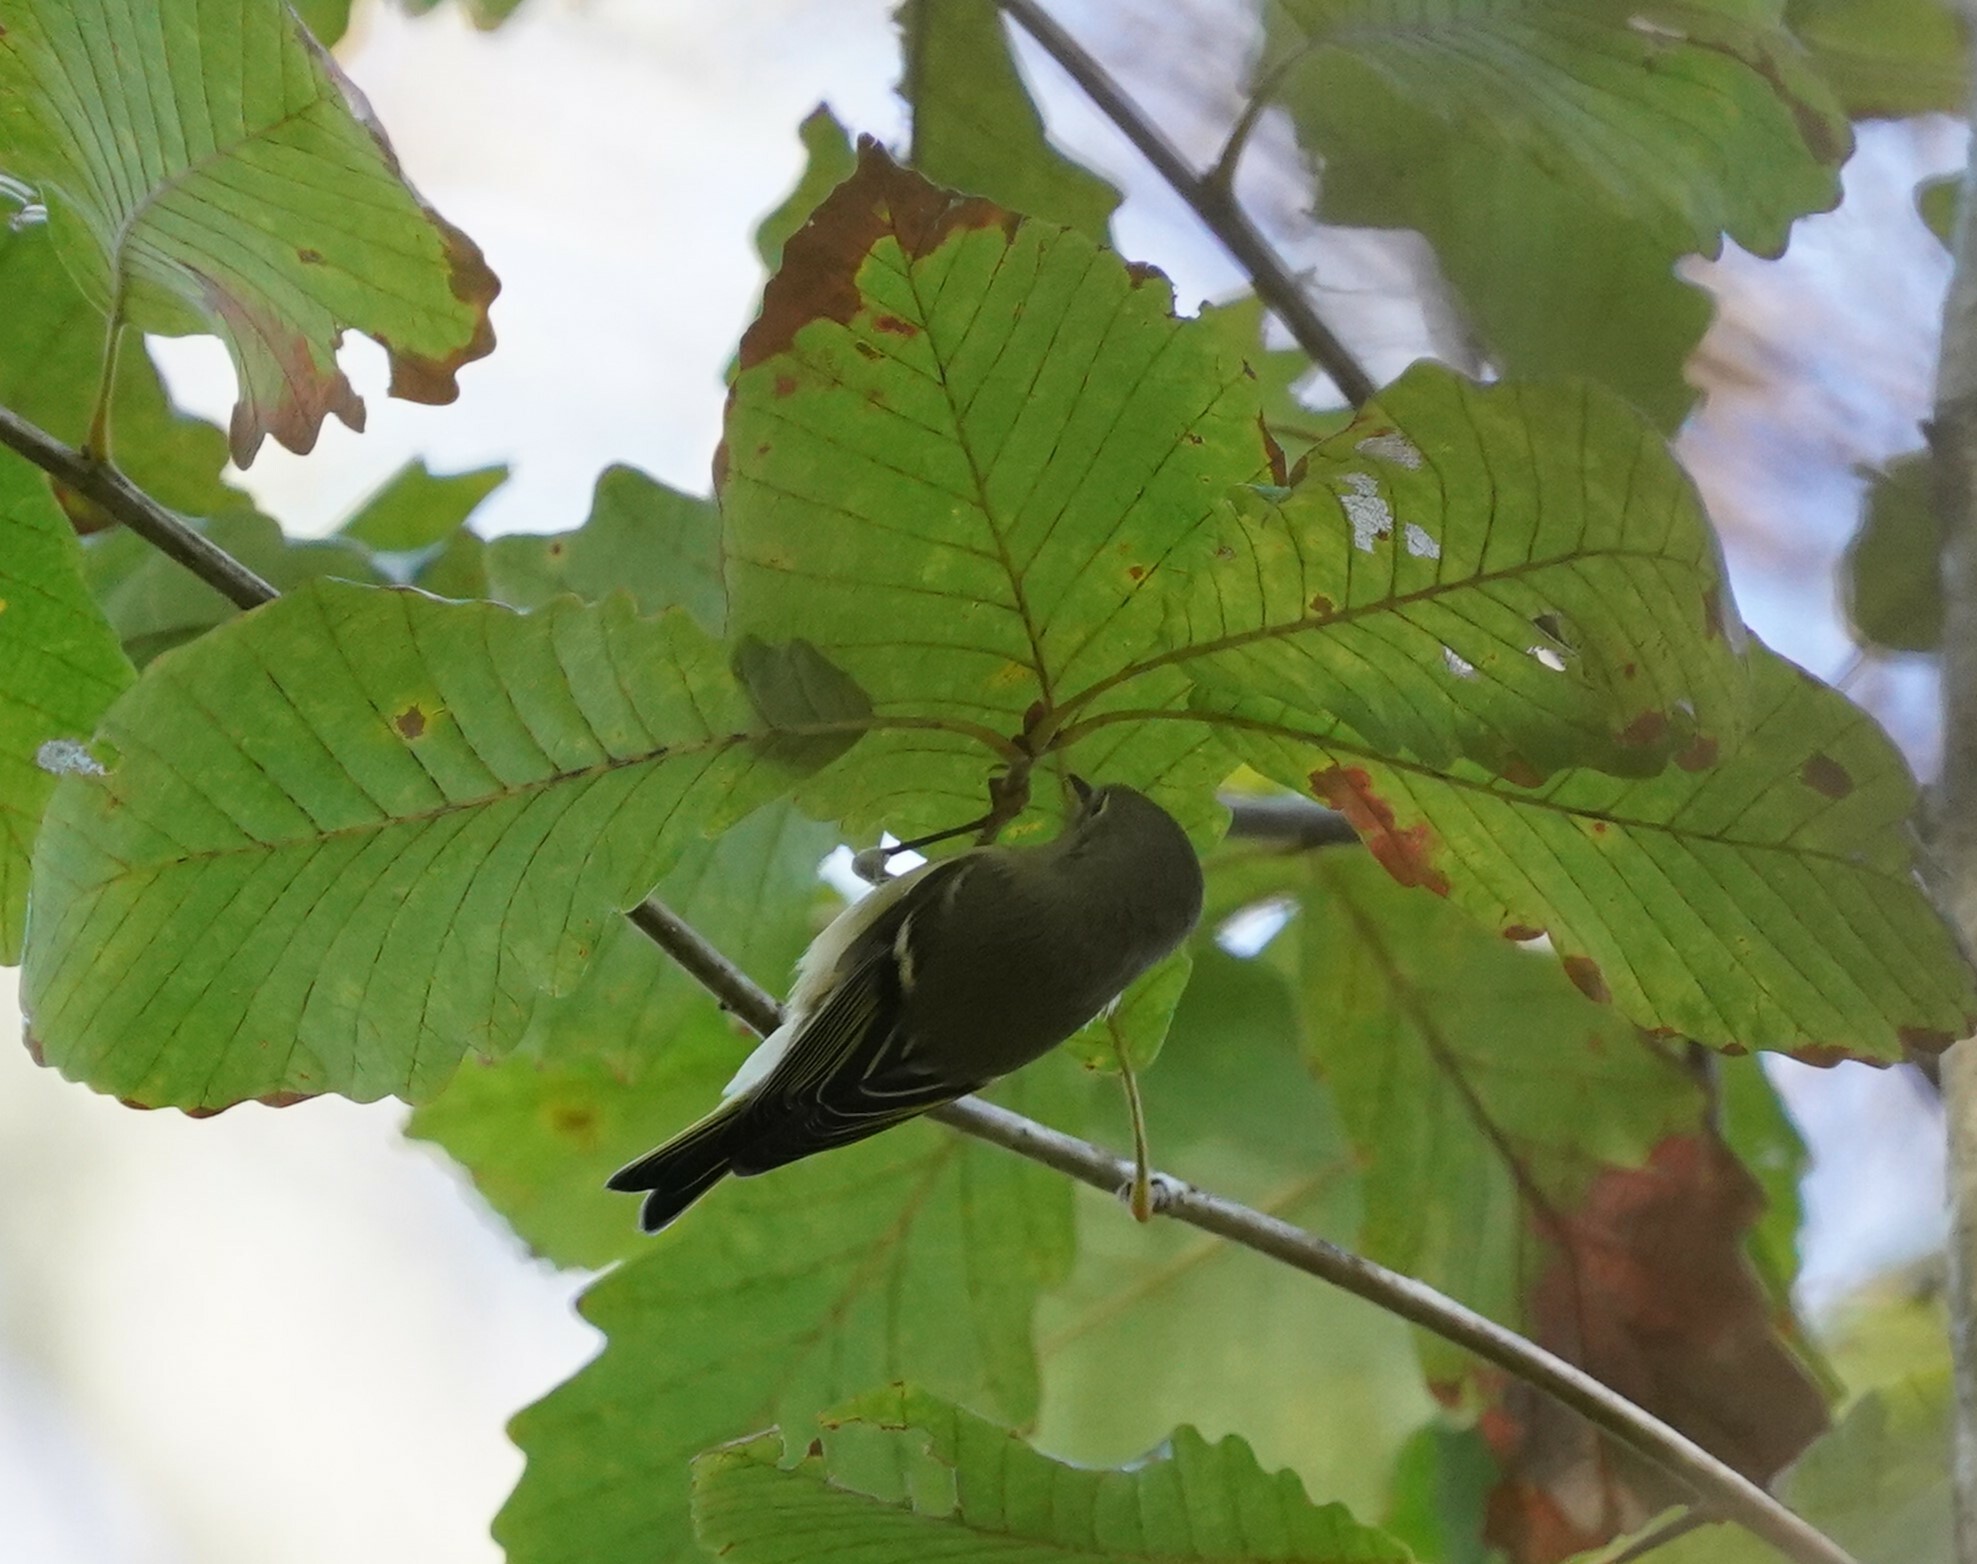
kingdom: Animalia
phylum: Chordata
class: Aves
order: Passeriformes
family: Regulidae
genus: Regulus
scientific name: Regulus calendula
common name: Ruby-crowned kinglet
